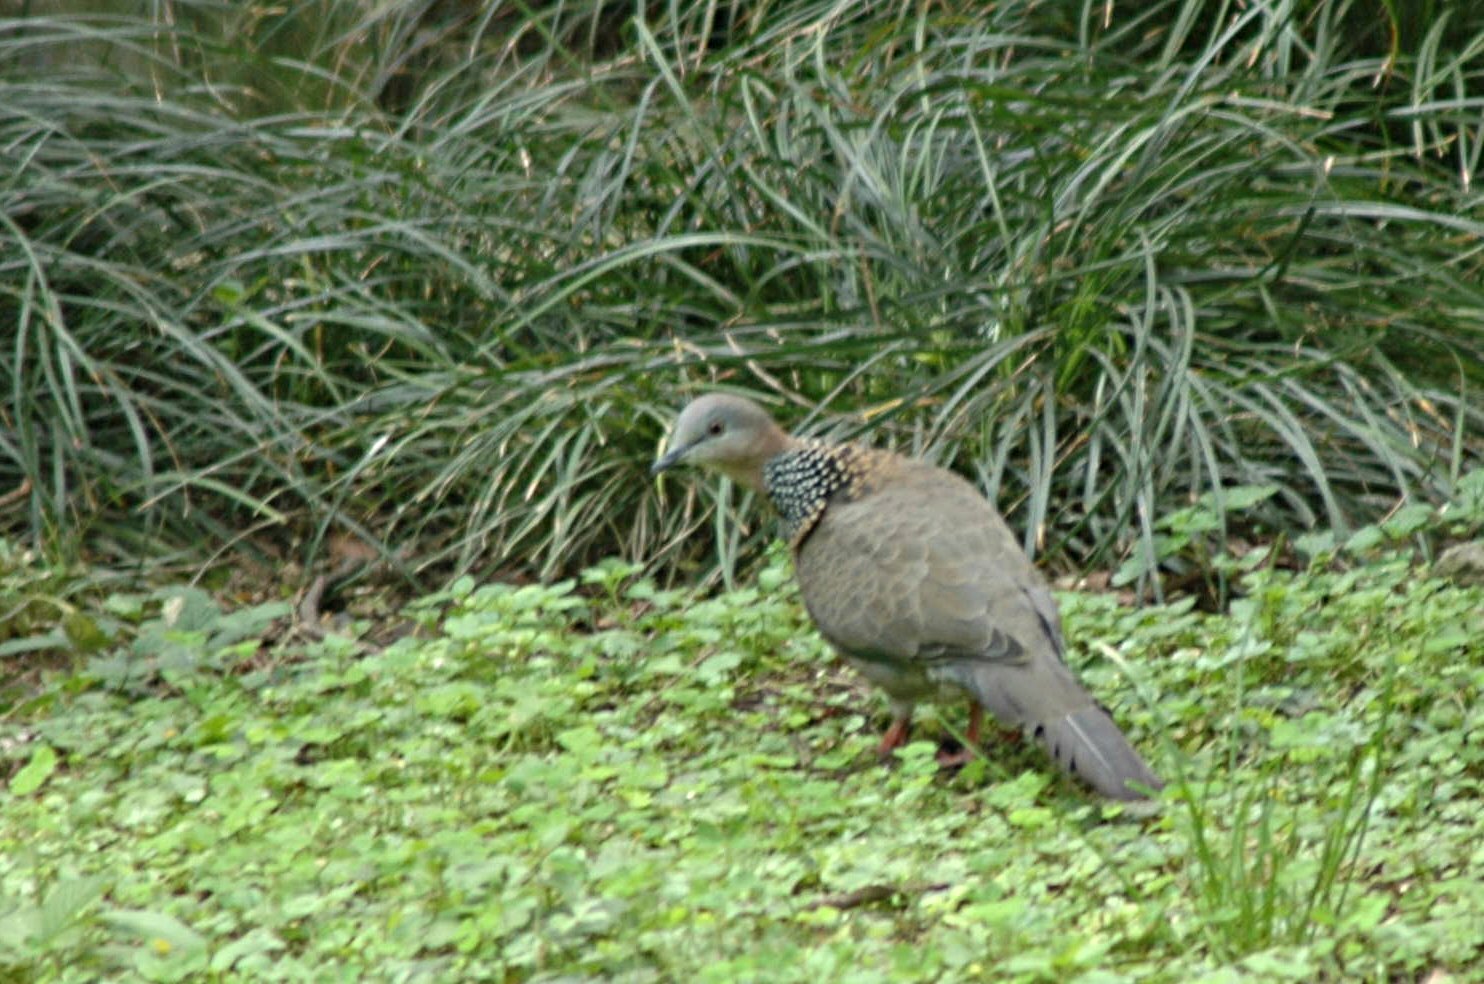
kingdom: Animalia
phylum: Chordata
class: Aves
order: Columbiformes
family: Columbidae
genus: Spilopelia
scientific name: Spilopelia chinensis
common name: Spotted dove
